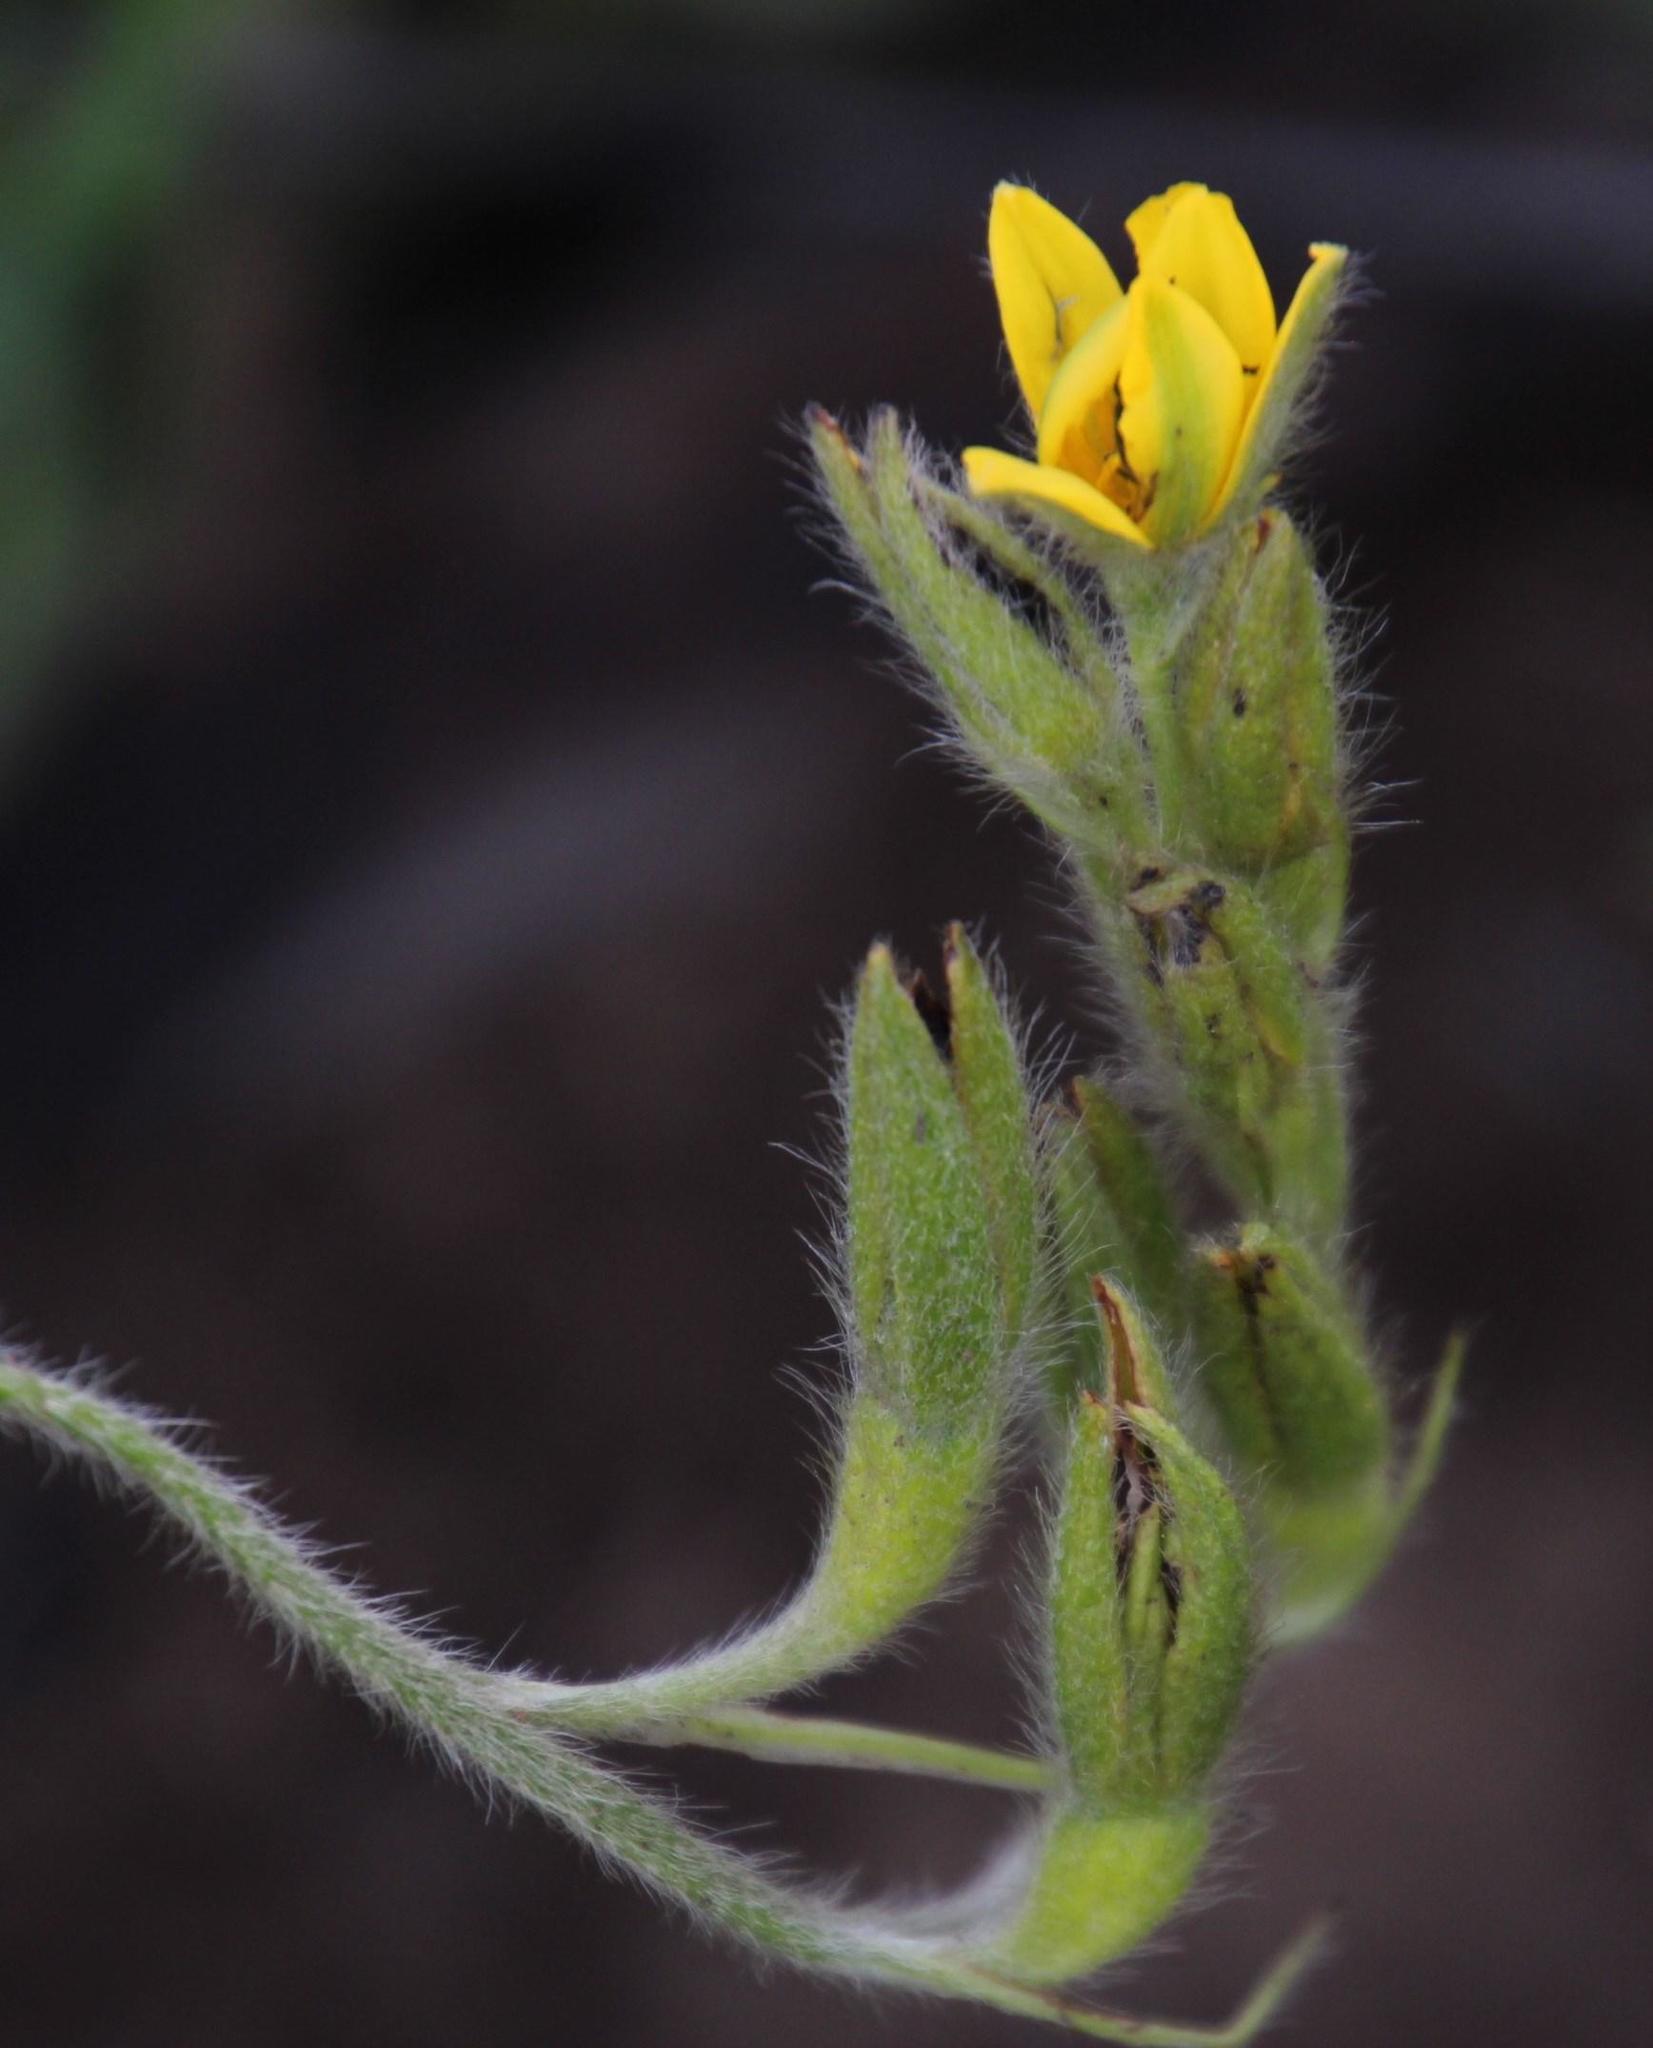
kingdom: Plantae
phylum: Tracheophyta
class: Liliopsida
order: Asparagales
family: Hypoxidaceae
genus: Hypoxis
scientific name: Hypoxis rigidula
